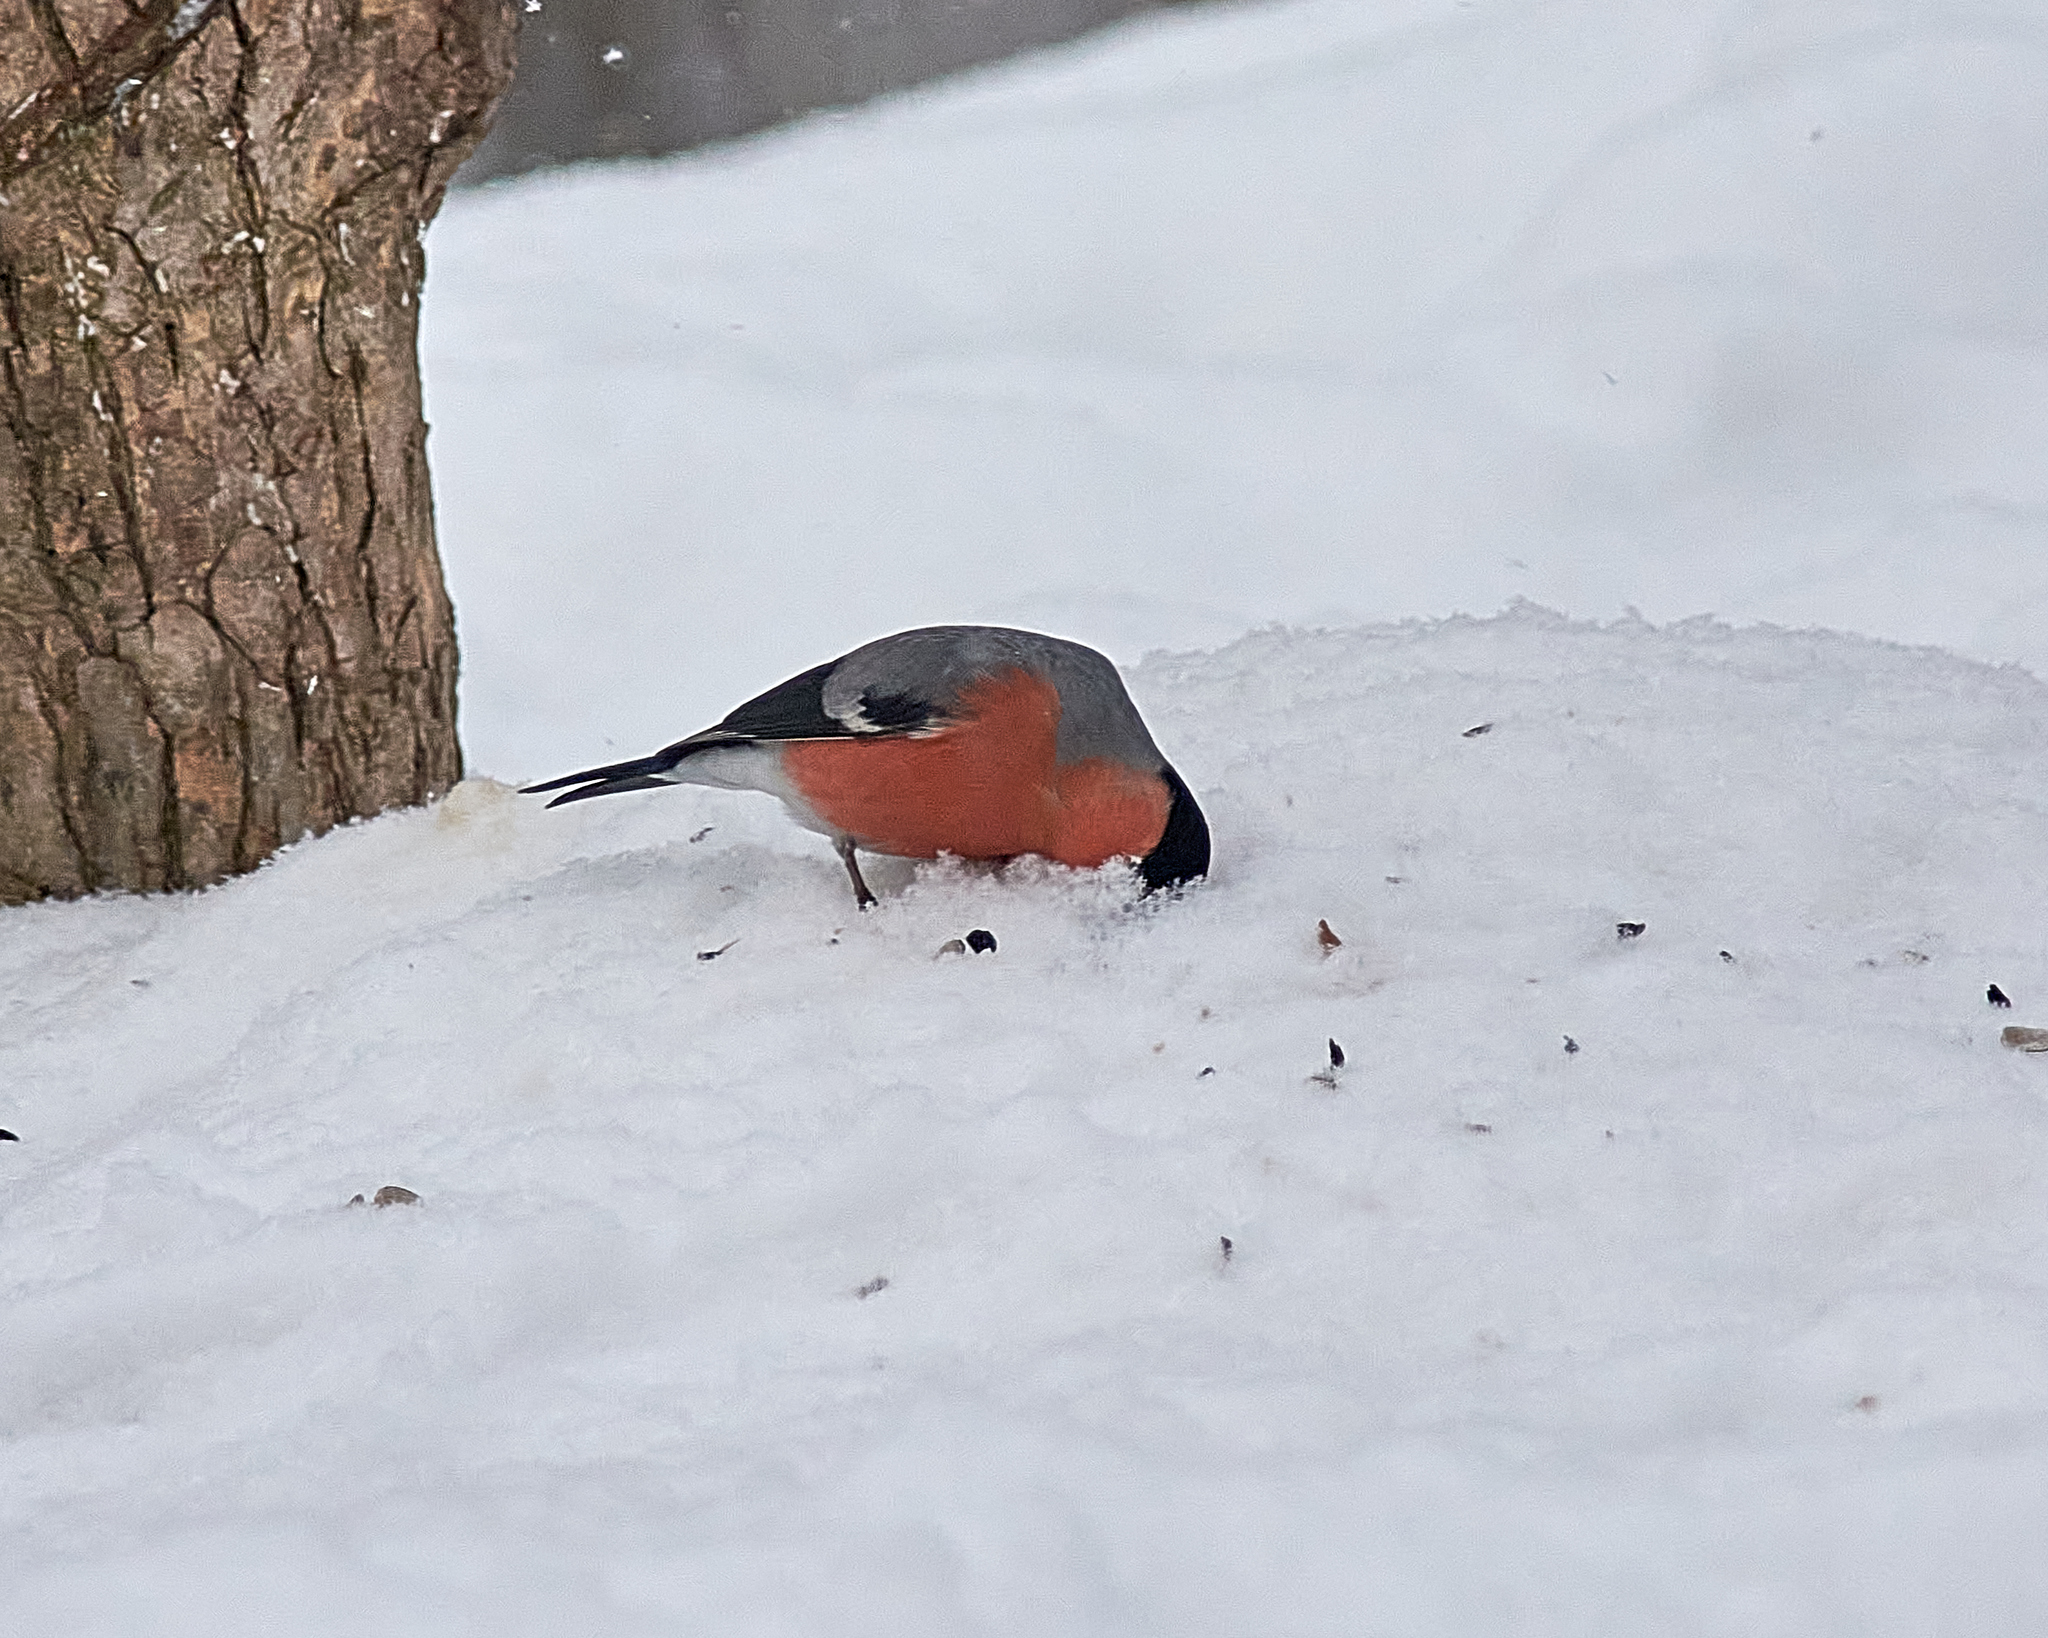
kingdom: Animalia
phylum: Chordata
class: Aves
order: Passeriformes
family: Fringillidae
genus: Pyrrhula
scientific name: Pyrrhula pyrrhula
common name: Eurasian bullfinch
